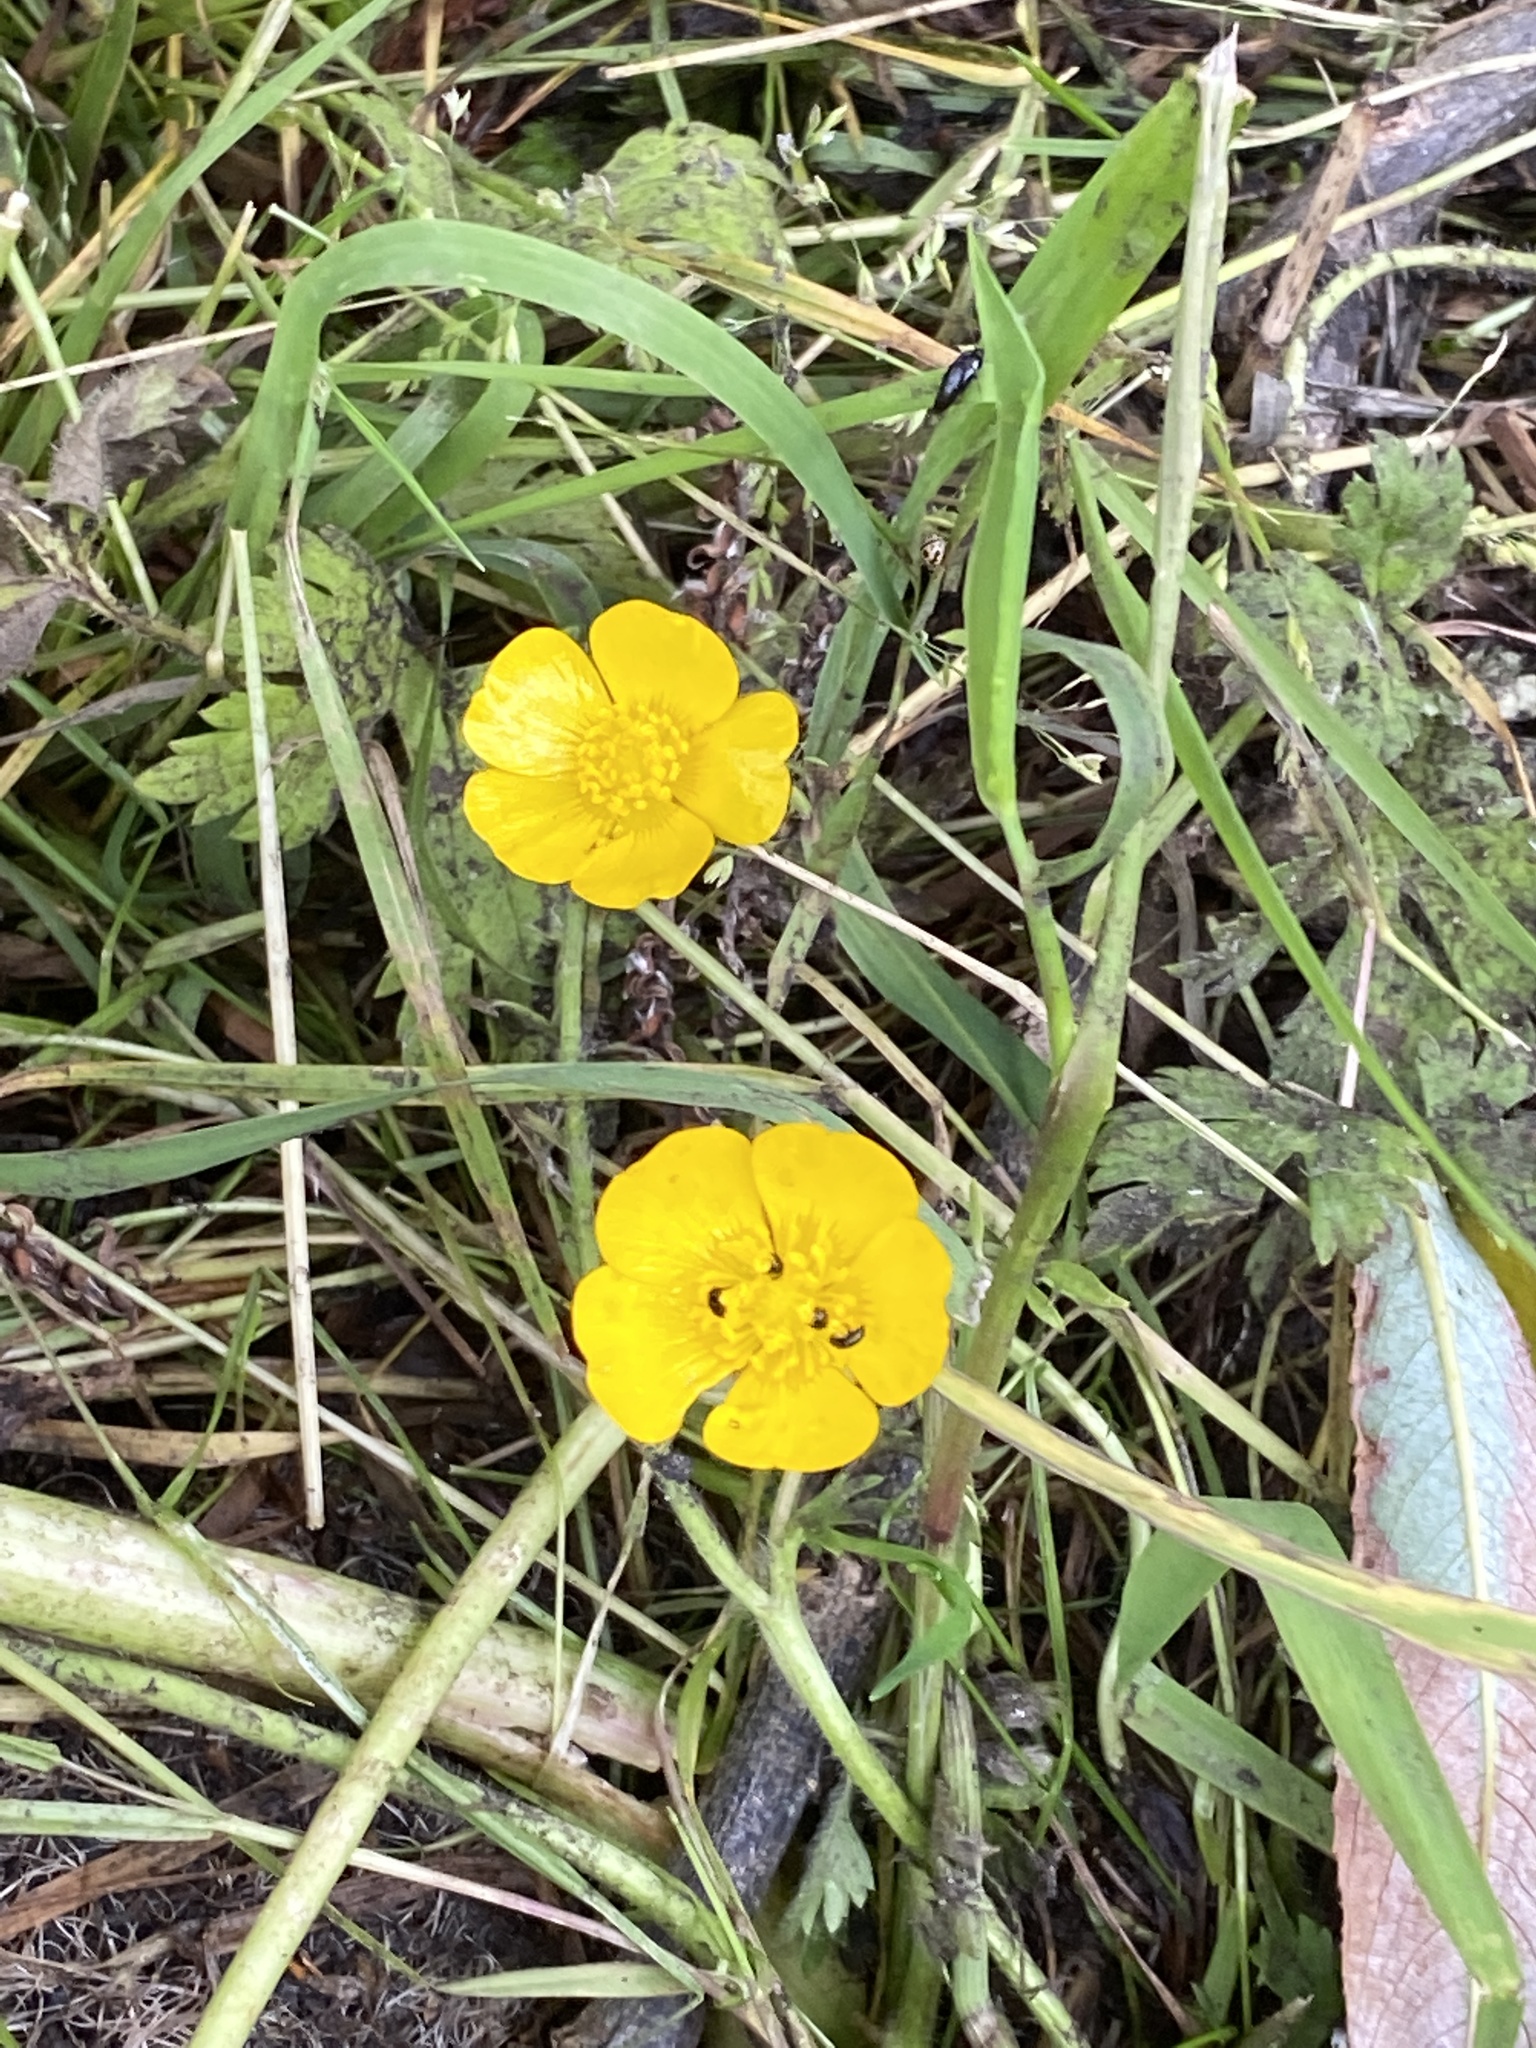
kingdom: Plantae
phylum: Tracheophyta
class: Magnoliopsida
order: Ranunculales
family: Ranunculaceae
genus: Ranunculus
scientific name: Ranunculus repens
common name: Creeping buttercup
